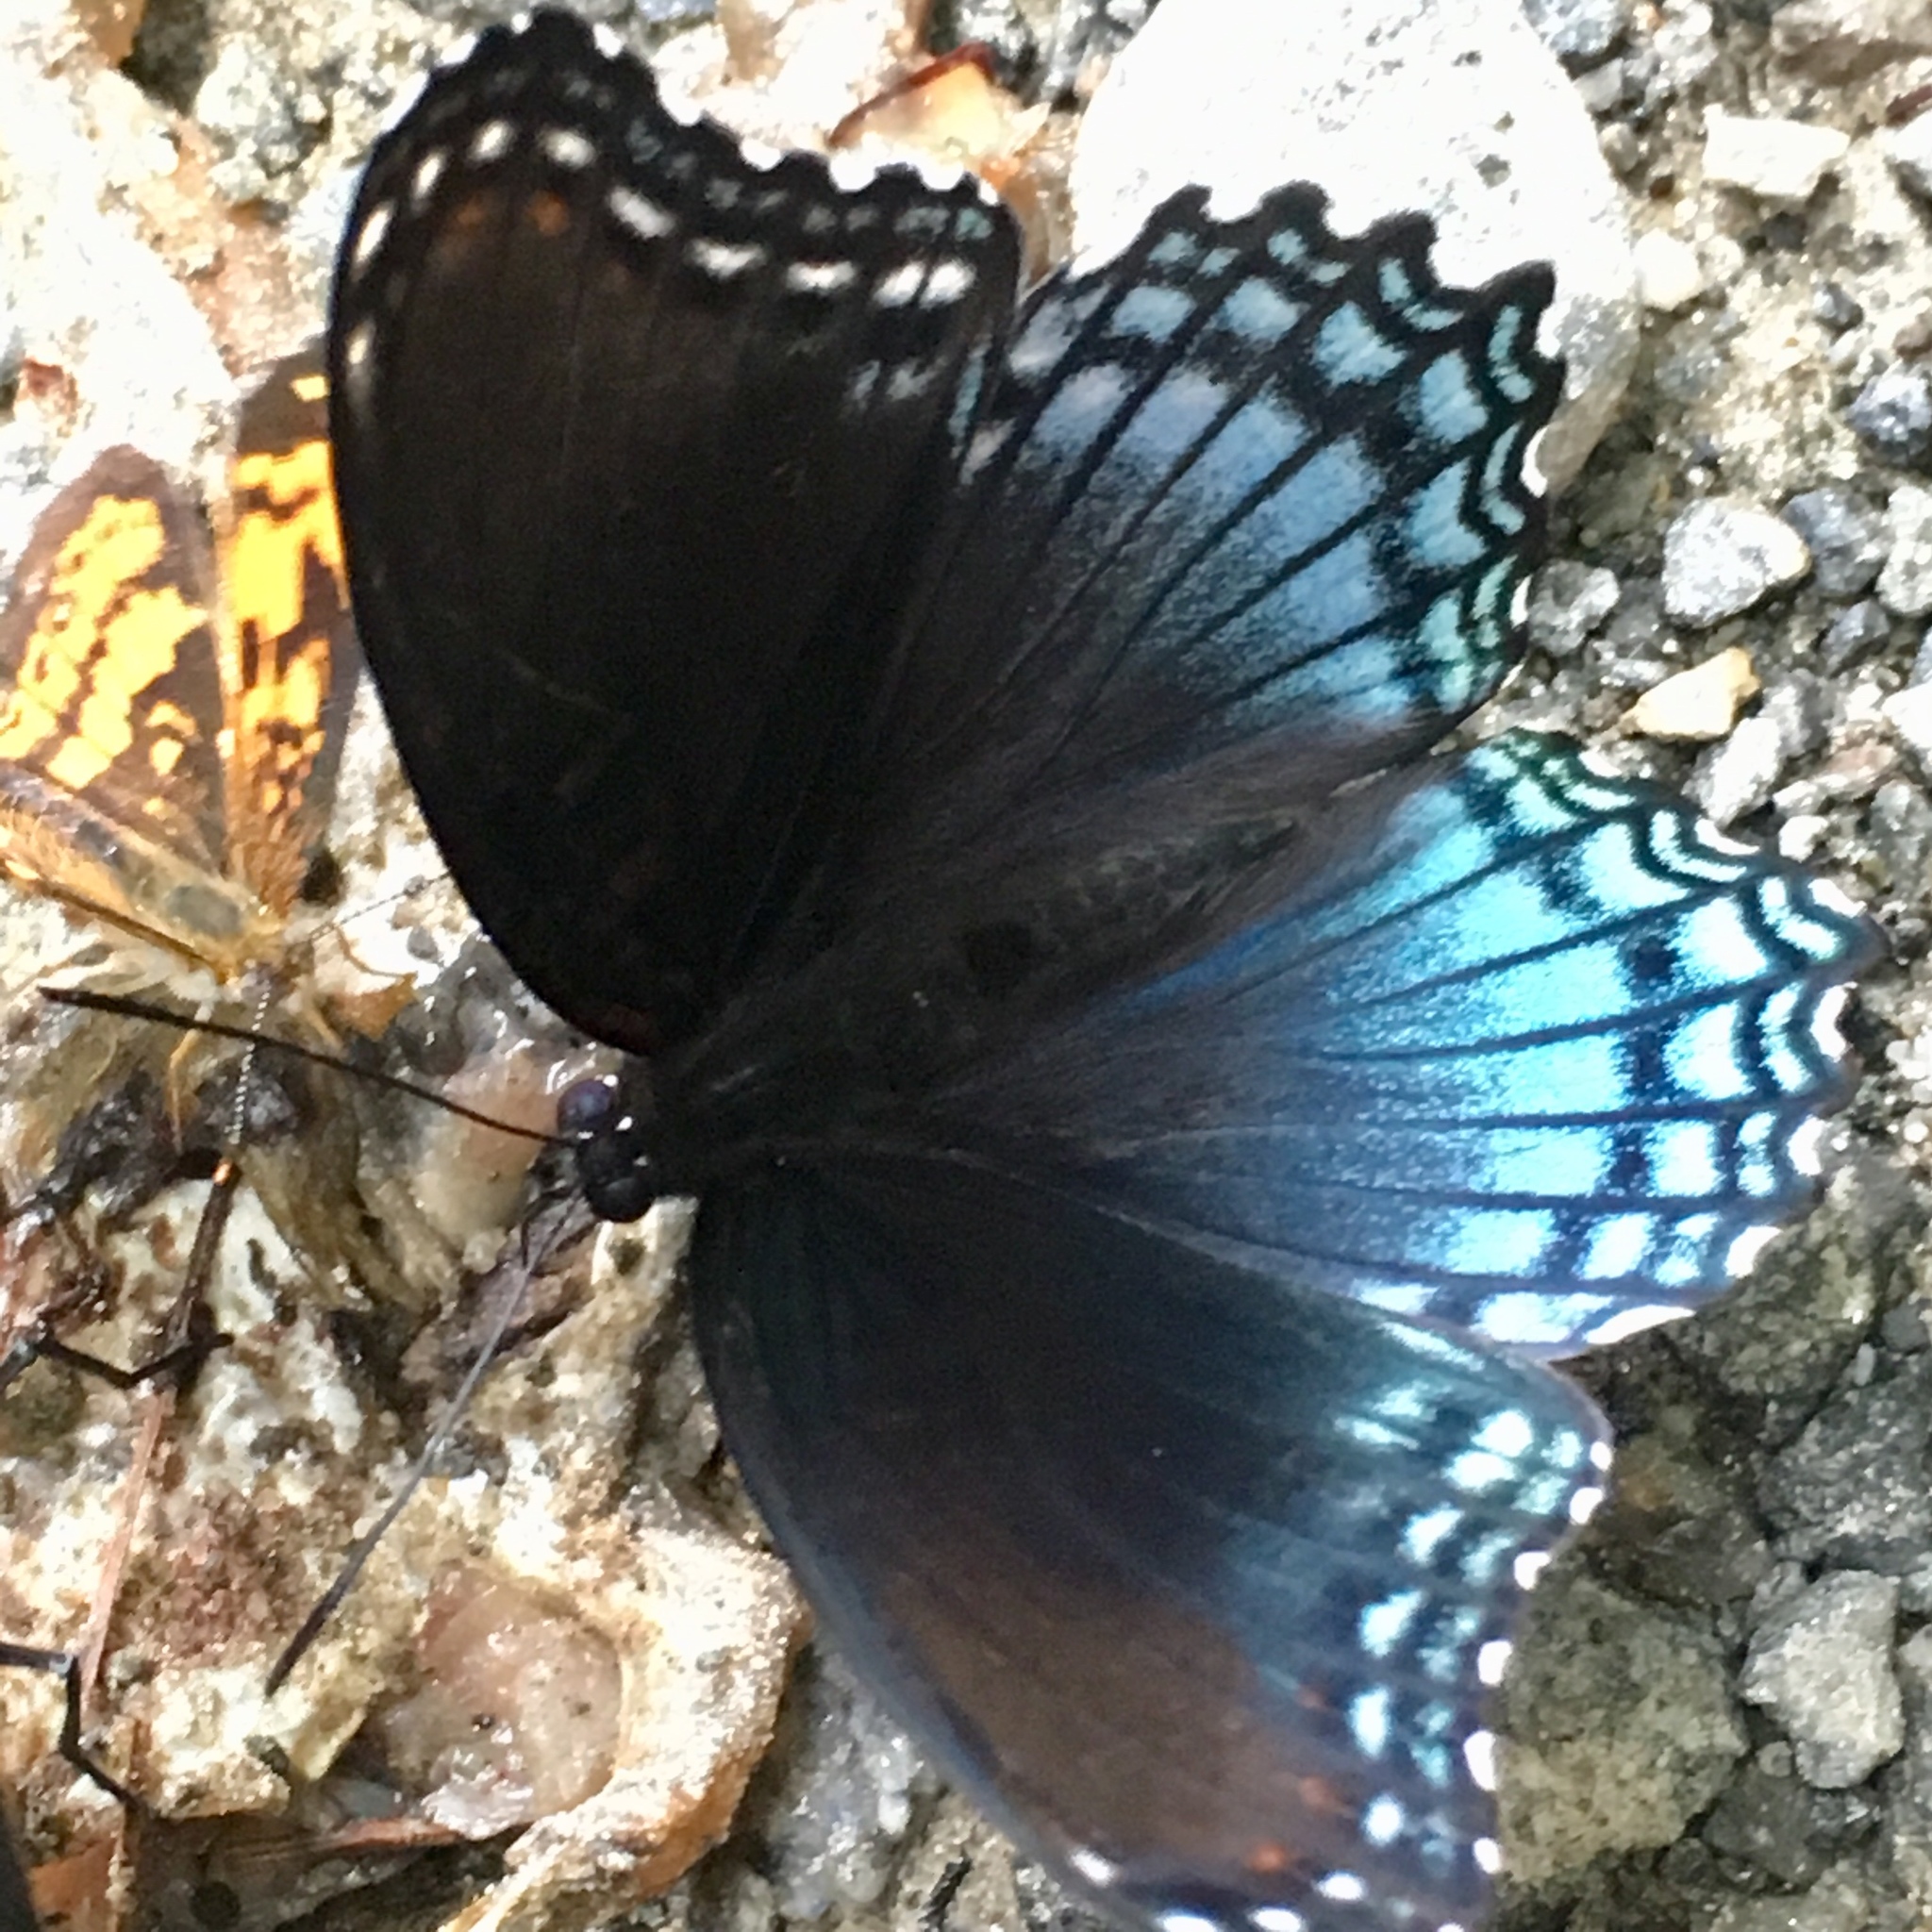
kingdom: Animalia
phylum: Arthropoda
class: Insecta
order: Lepidoptera
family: Nymphalidae
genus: Limenitis
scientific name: Limenitis arthemis
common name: Red-spotted admiral
